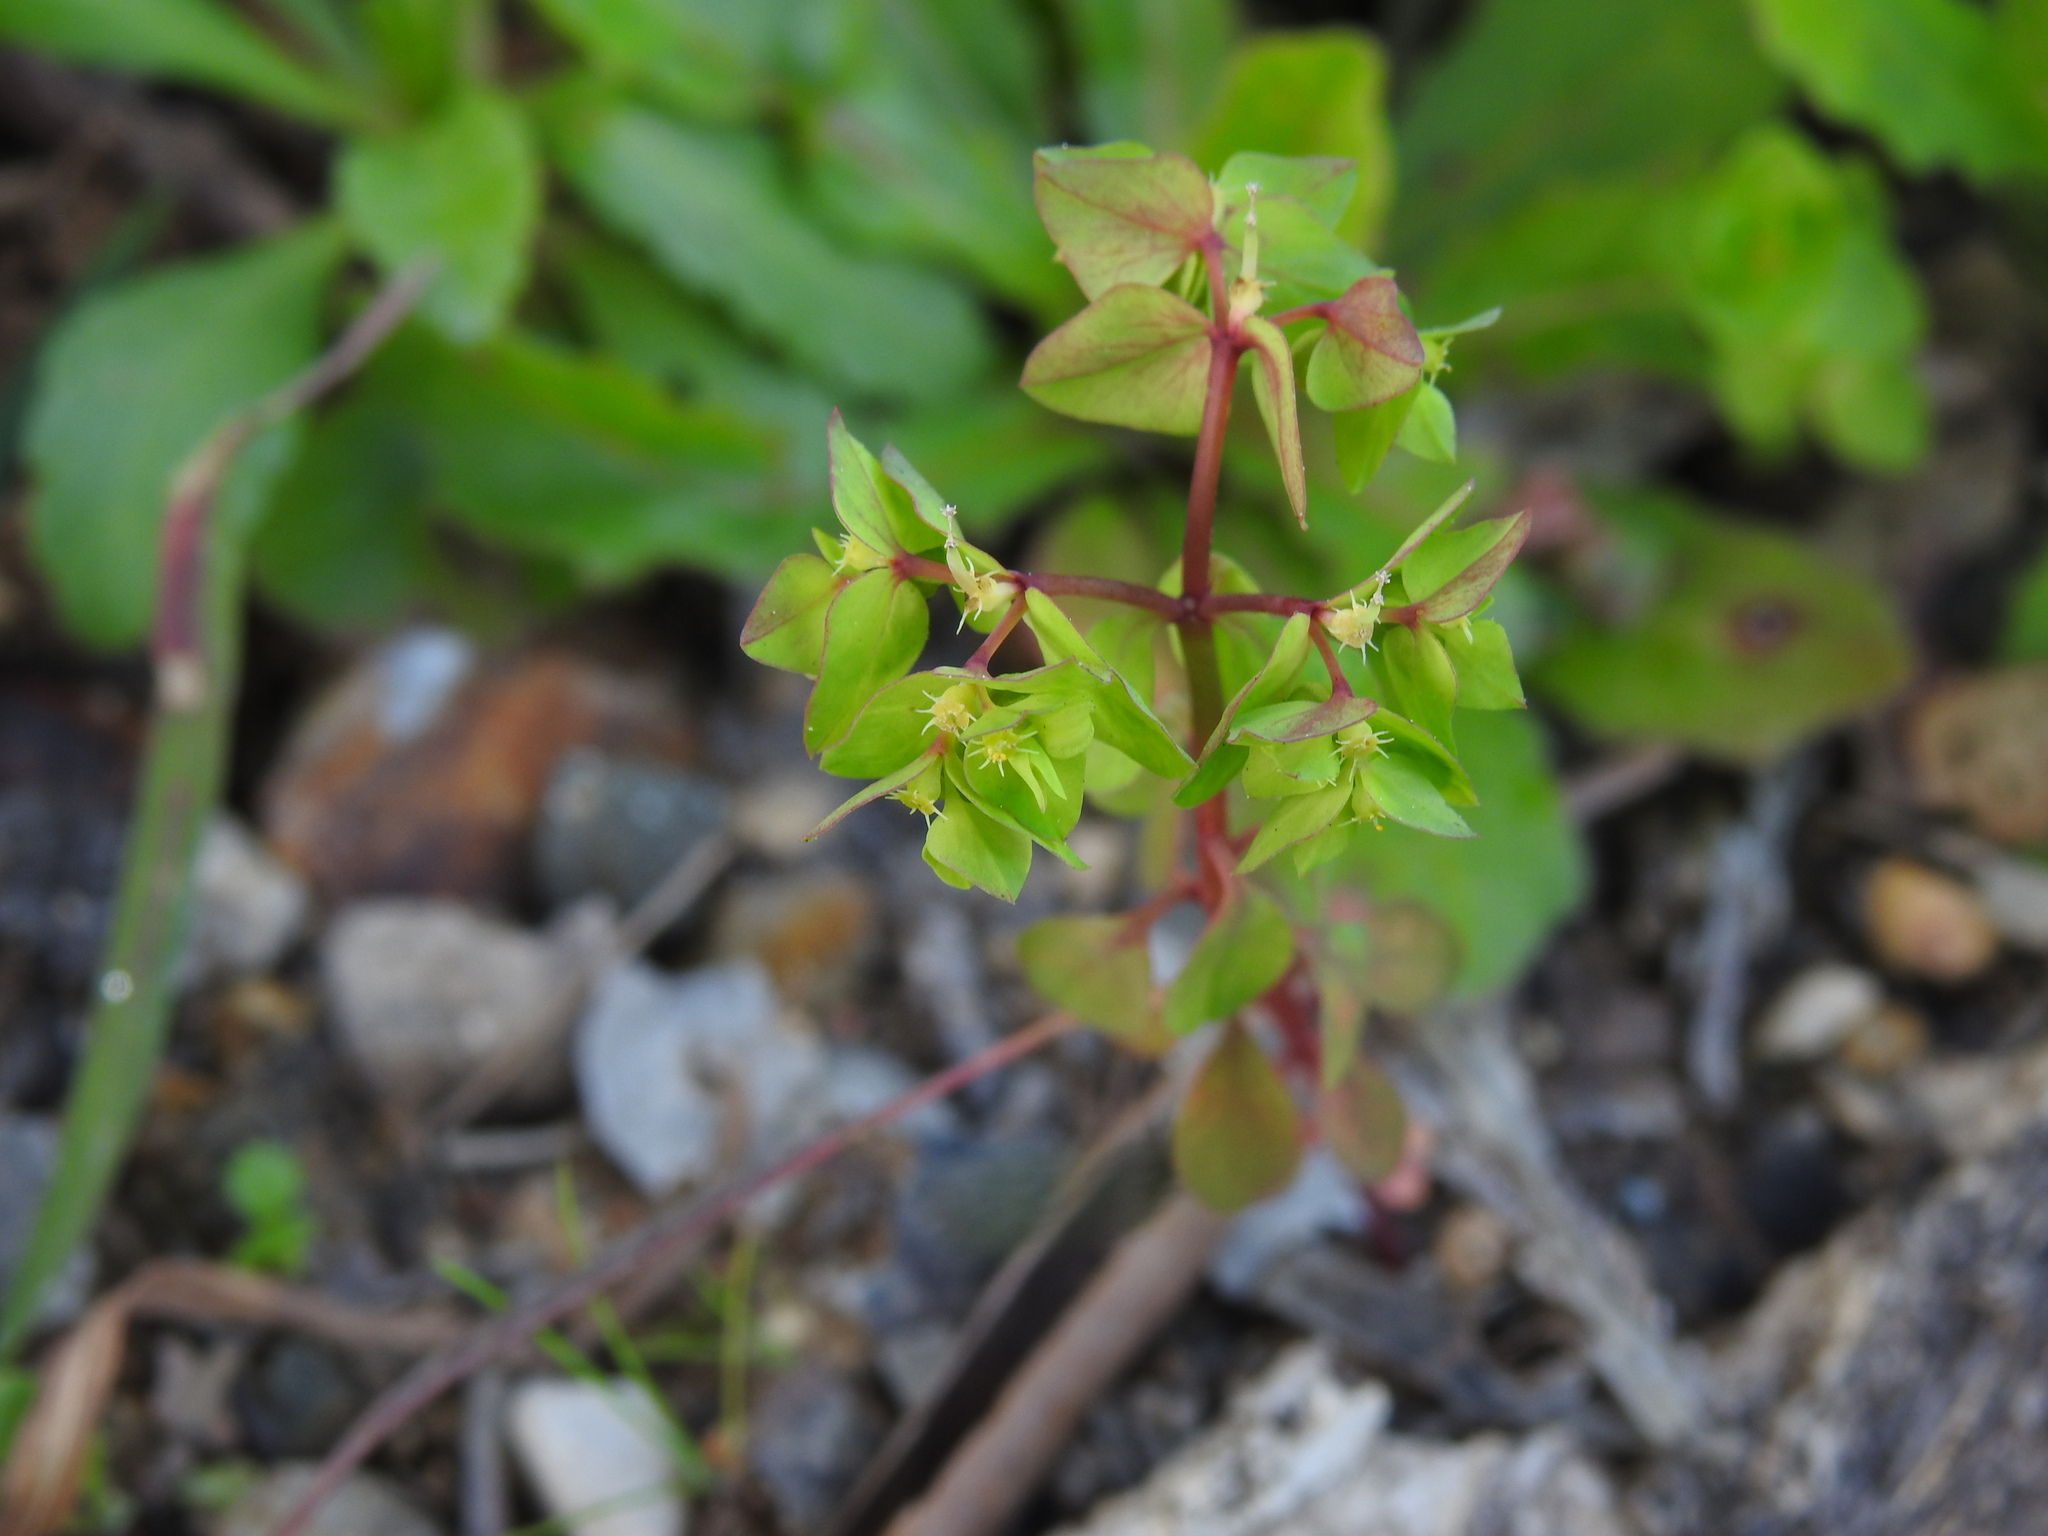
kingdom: Plantae
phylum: Tracheophyta
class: Magnoliopsida
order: Malpighiales
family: Euphorbiaceae
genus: Euphorbia
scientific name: Euphorbia peplus
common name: Petty spurge
